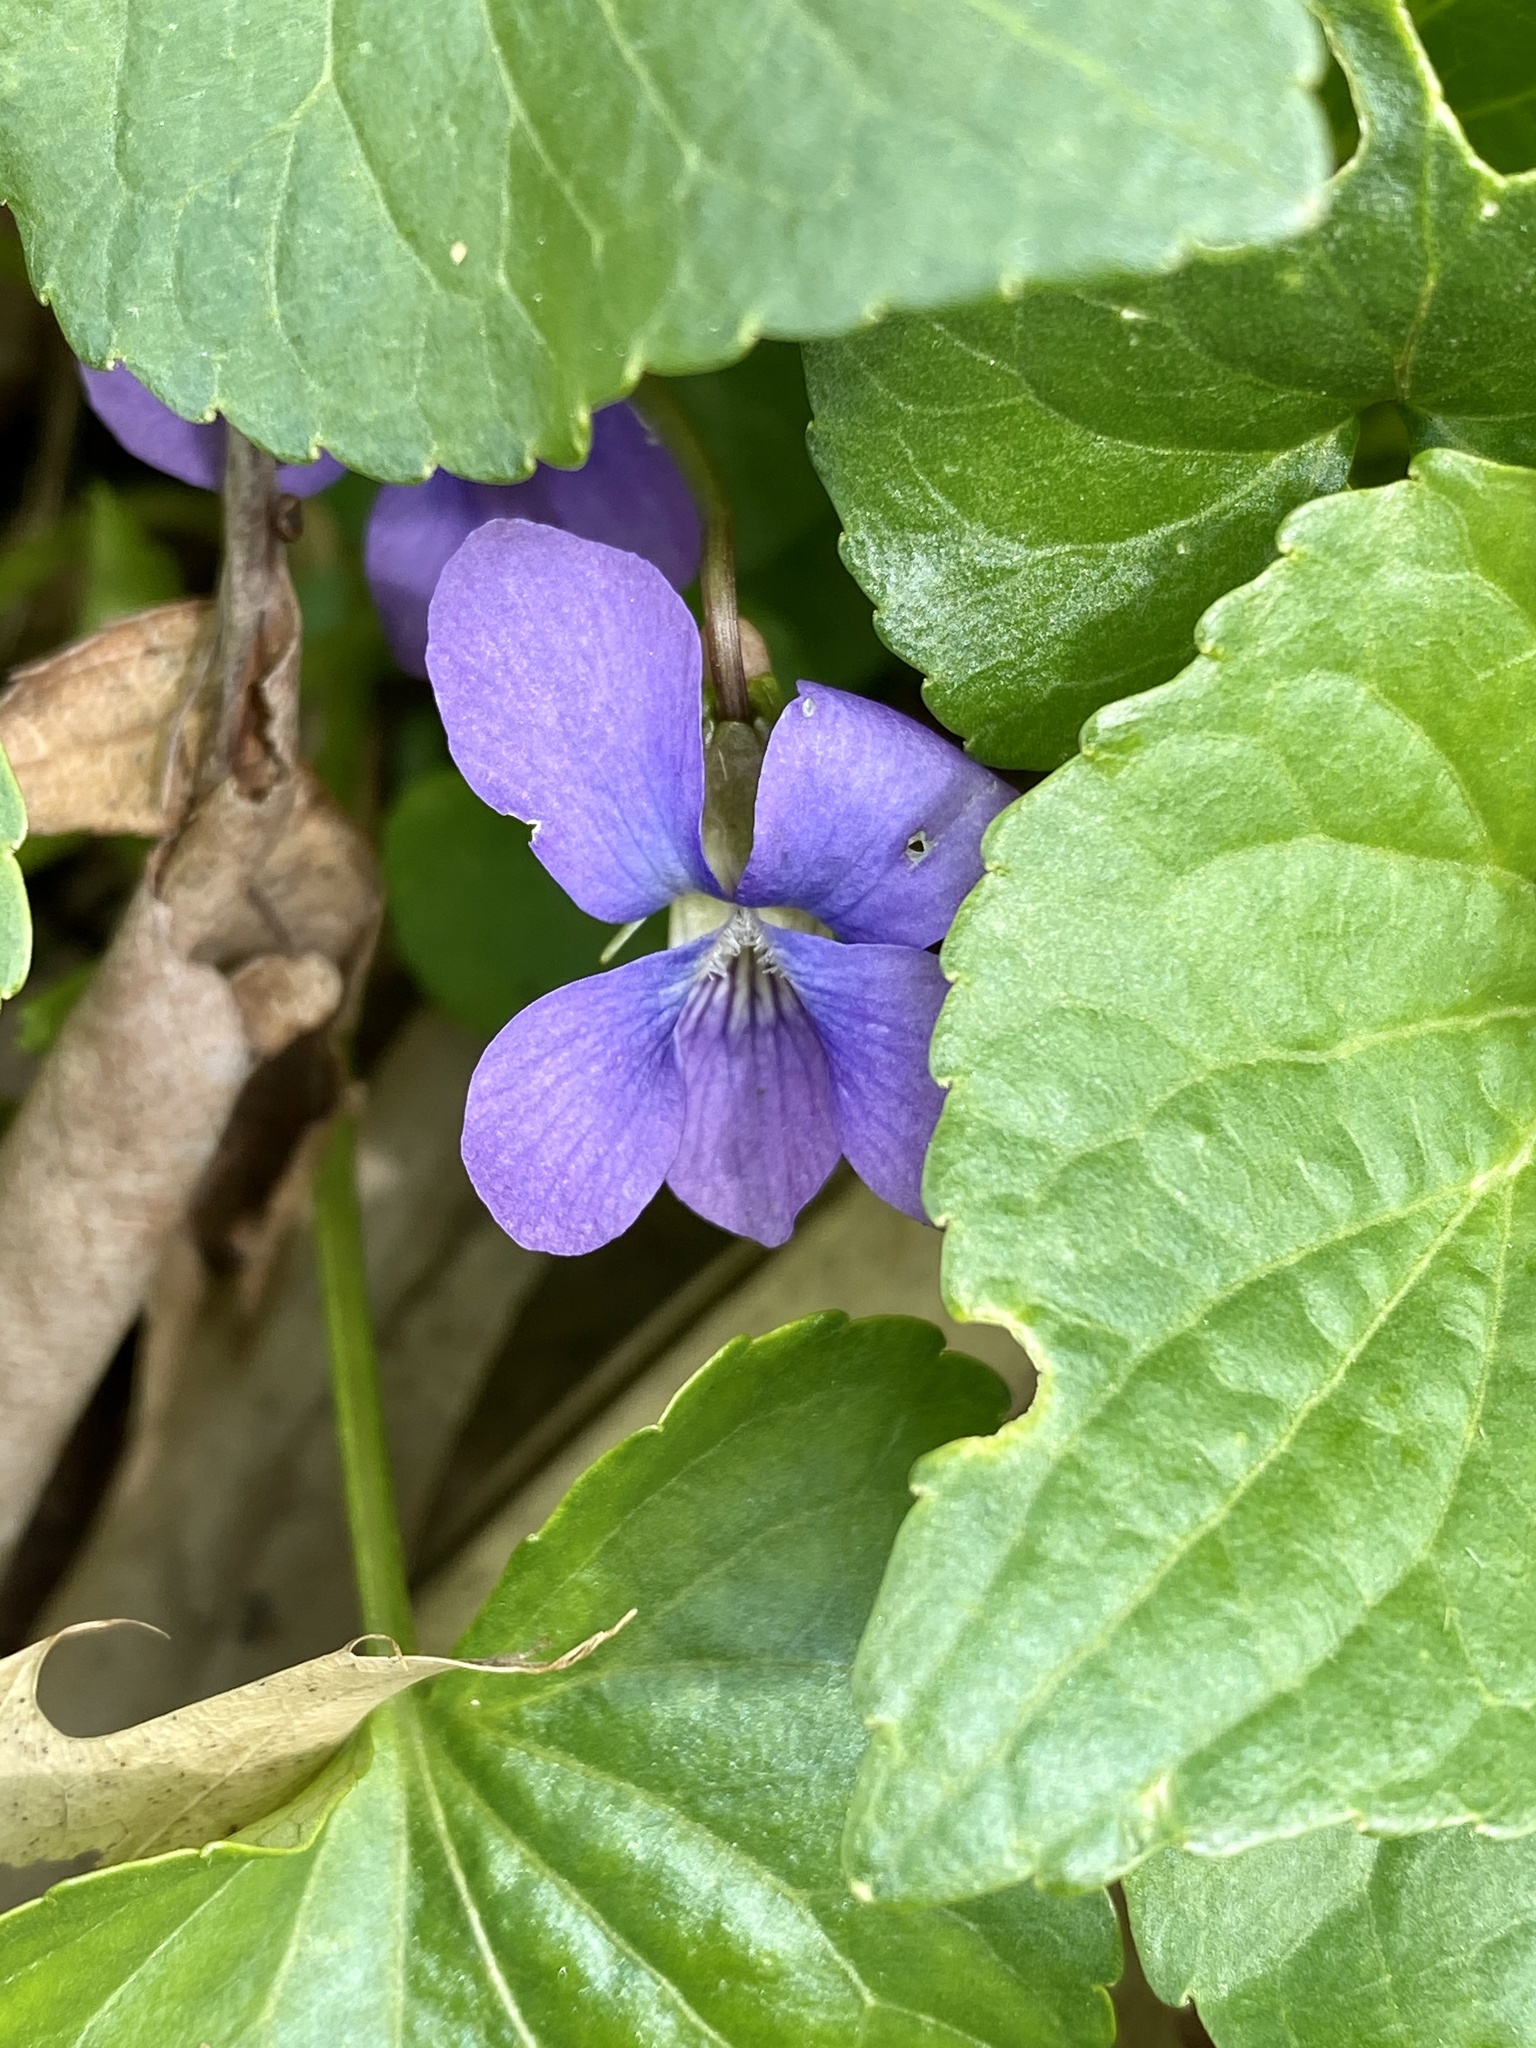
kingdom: Plantae
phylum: Tracheophyta
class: Magnoliopsida
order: Malpighiales
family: Violaceae
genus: Viola
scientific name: Viola sororia
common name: Dooryard violet
